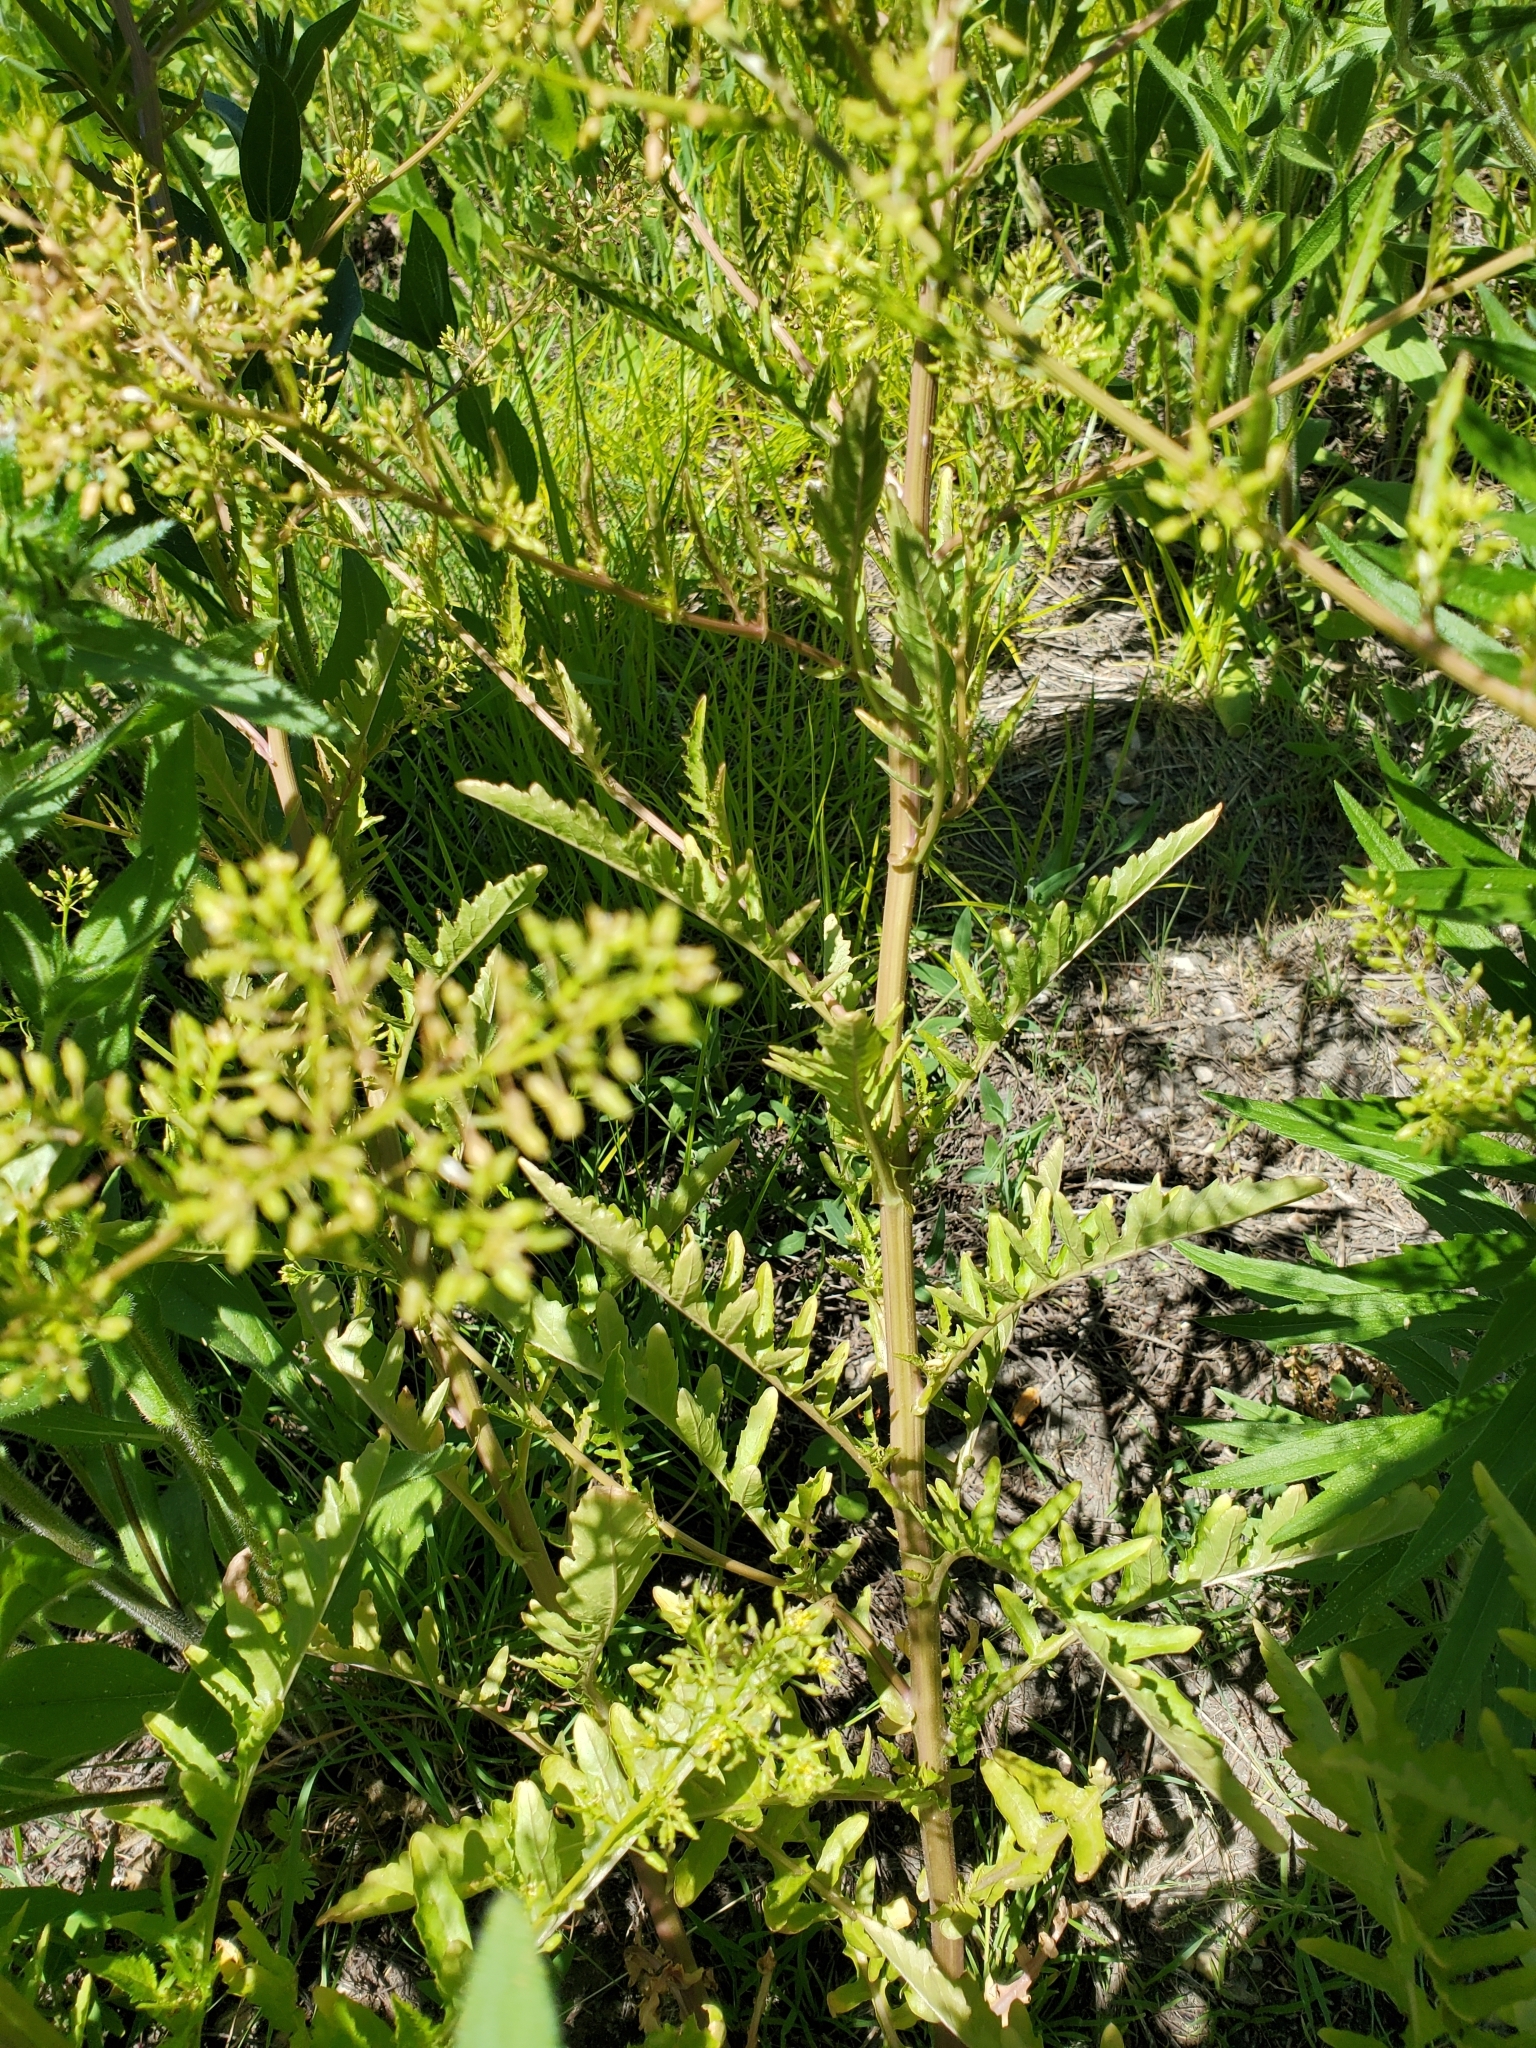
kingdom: Plantae
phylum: Tracheophyta
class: Magnoliopsida
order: Brassicales
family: Brassicaceae
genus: Rorippa
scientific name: Rorippa palustris
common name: Marsh yellow-cress
